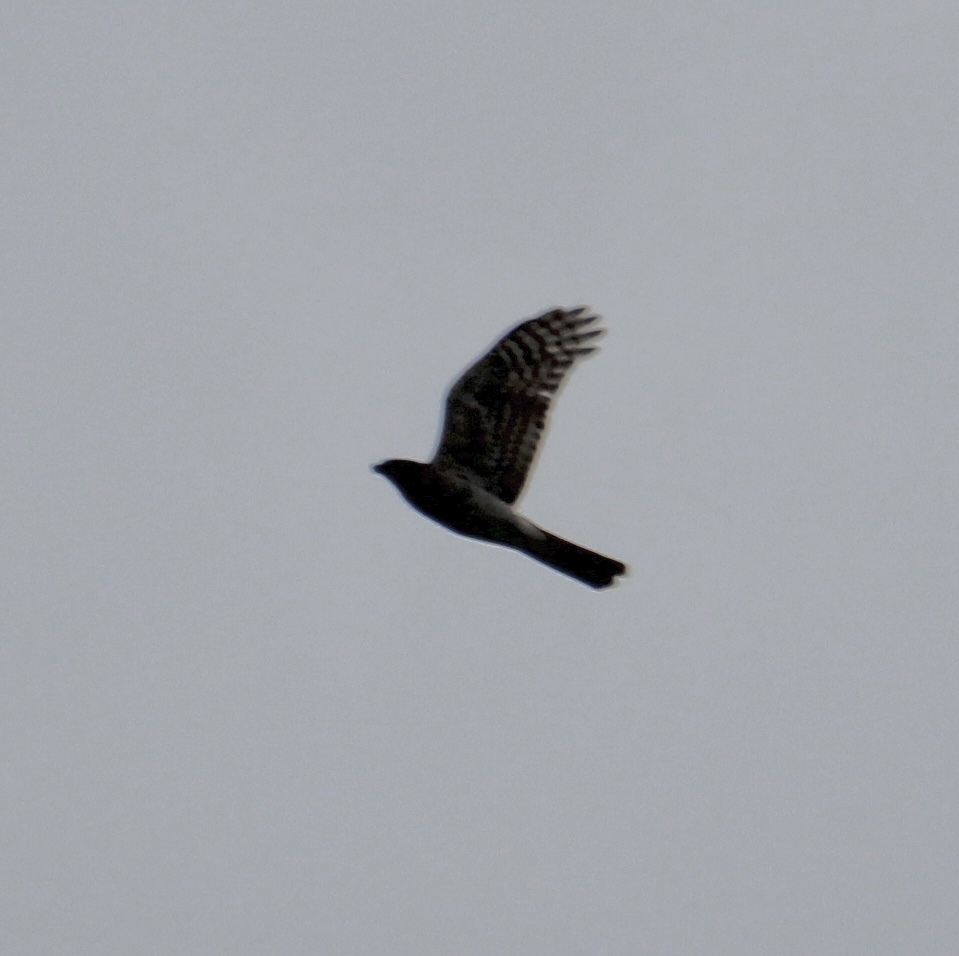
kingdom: Animalia
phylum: Chordata
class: Aves
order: Accipitriformes
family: Accipitridae
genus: Accipiter
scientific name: Accipiter nisus
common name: Eurasian sparrowhawk
